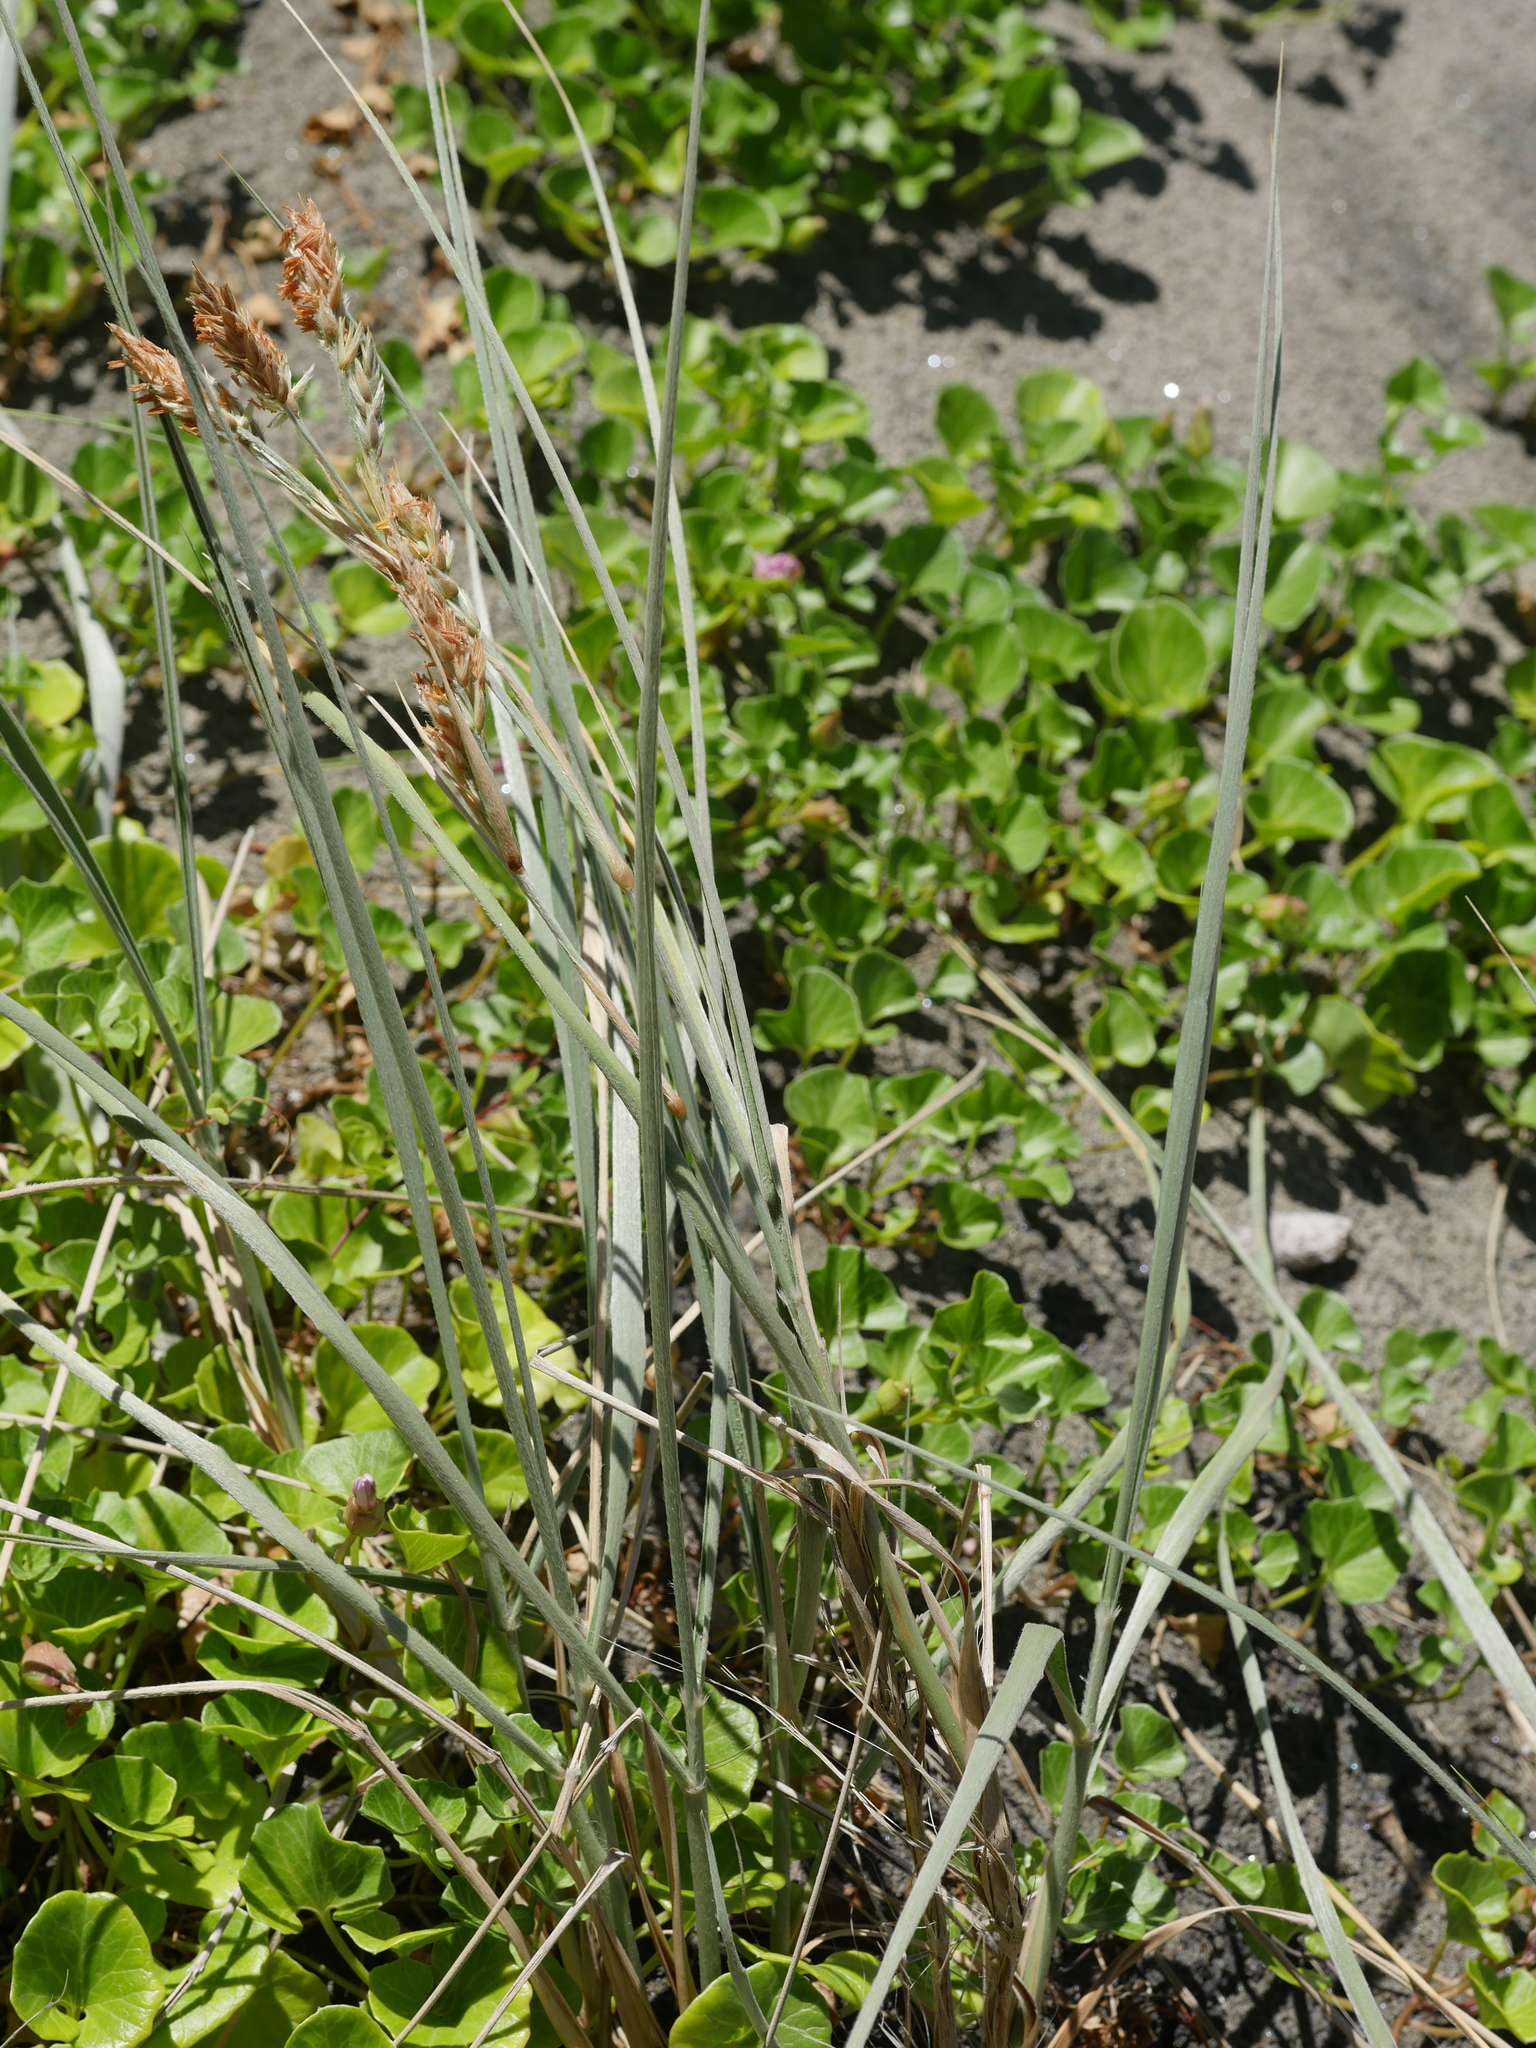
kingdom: Plantae
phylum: Tracheophyta
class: Liliopsida
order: Poales
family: Poaceae
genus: Spinifex
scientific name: Spinifex sericeus
